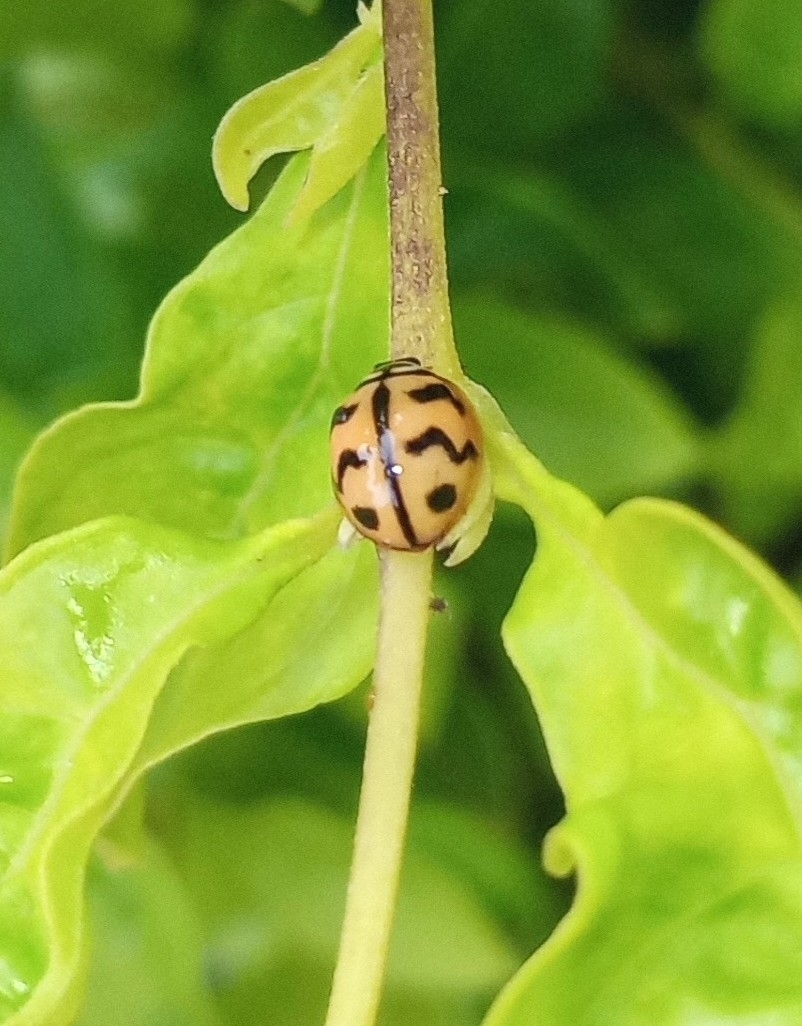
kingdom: Animalia
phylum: Arthropoda
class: Insecta
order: Coleoptera
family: Coccinellidae
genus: Cheilomenes
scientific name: Cheilomenes sexmaculata
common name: Ladybird beetle
